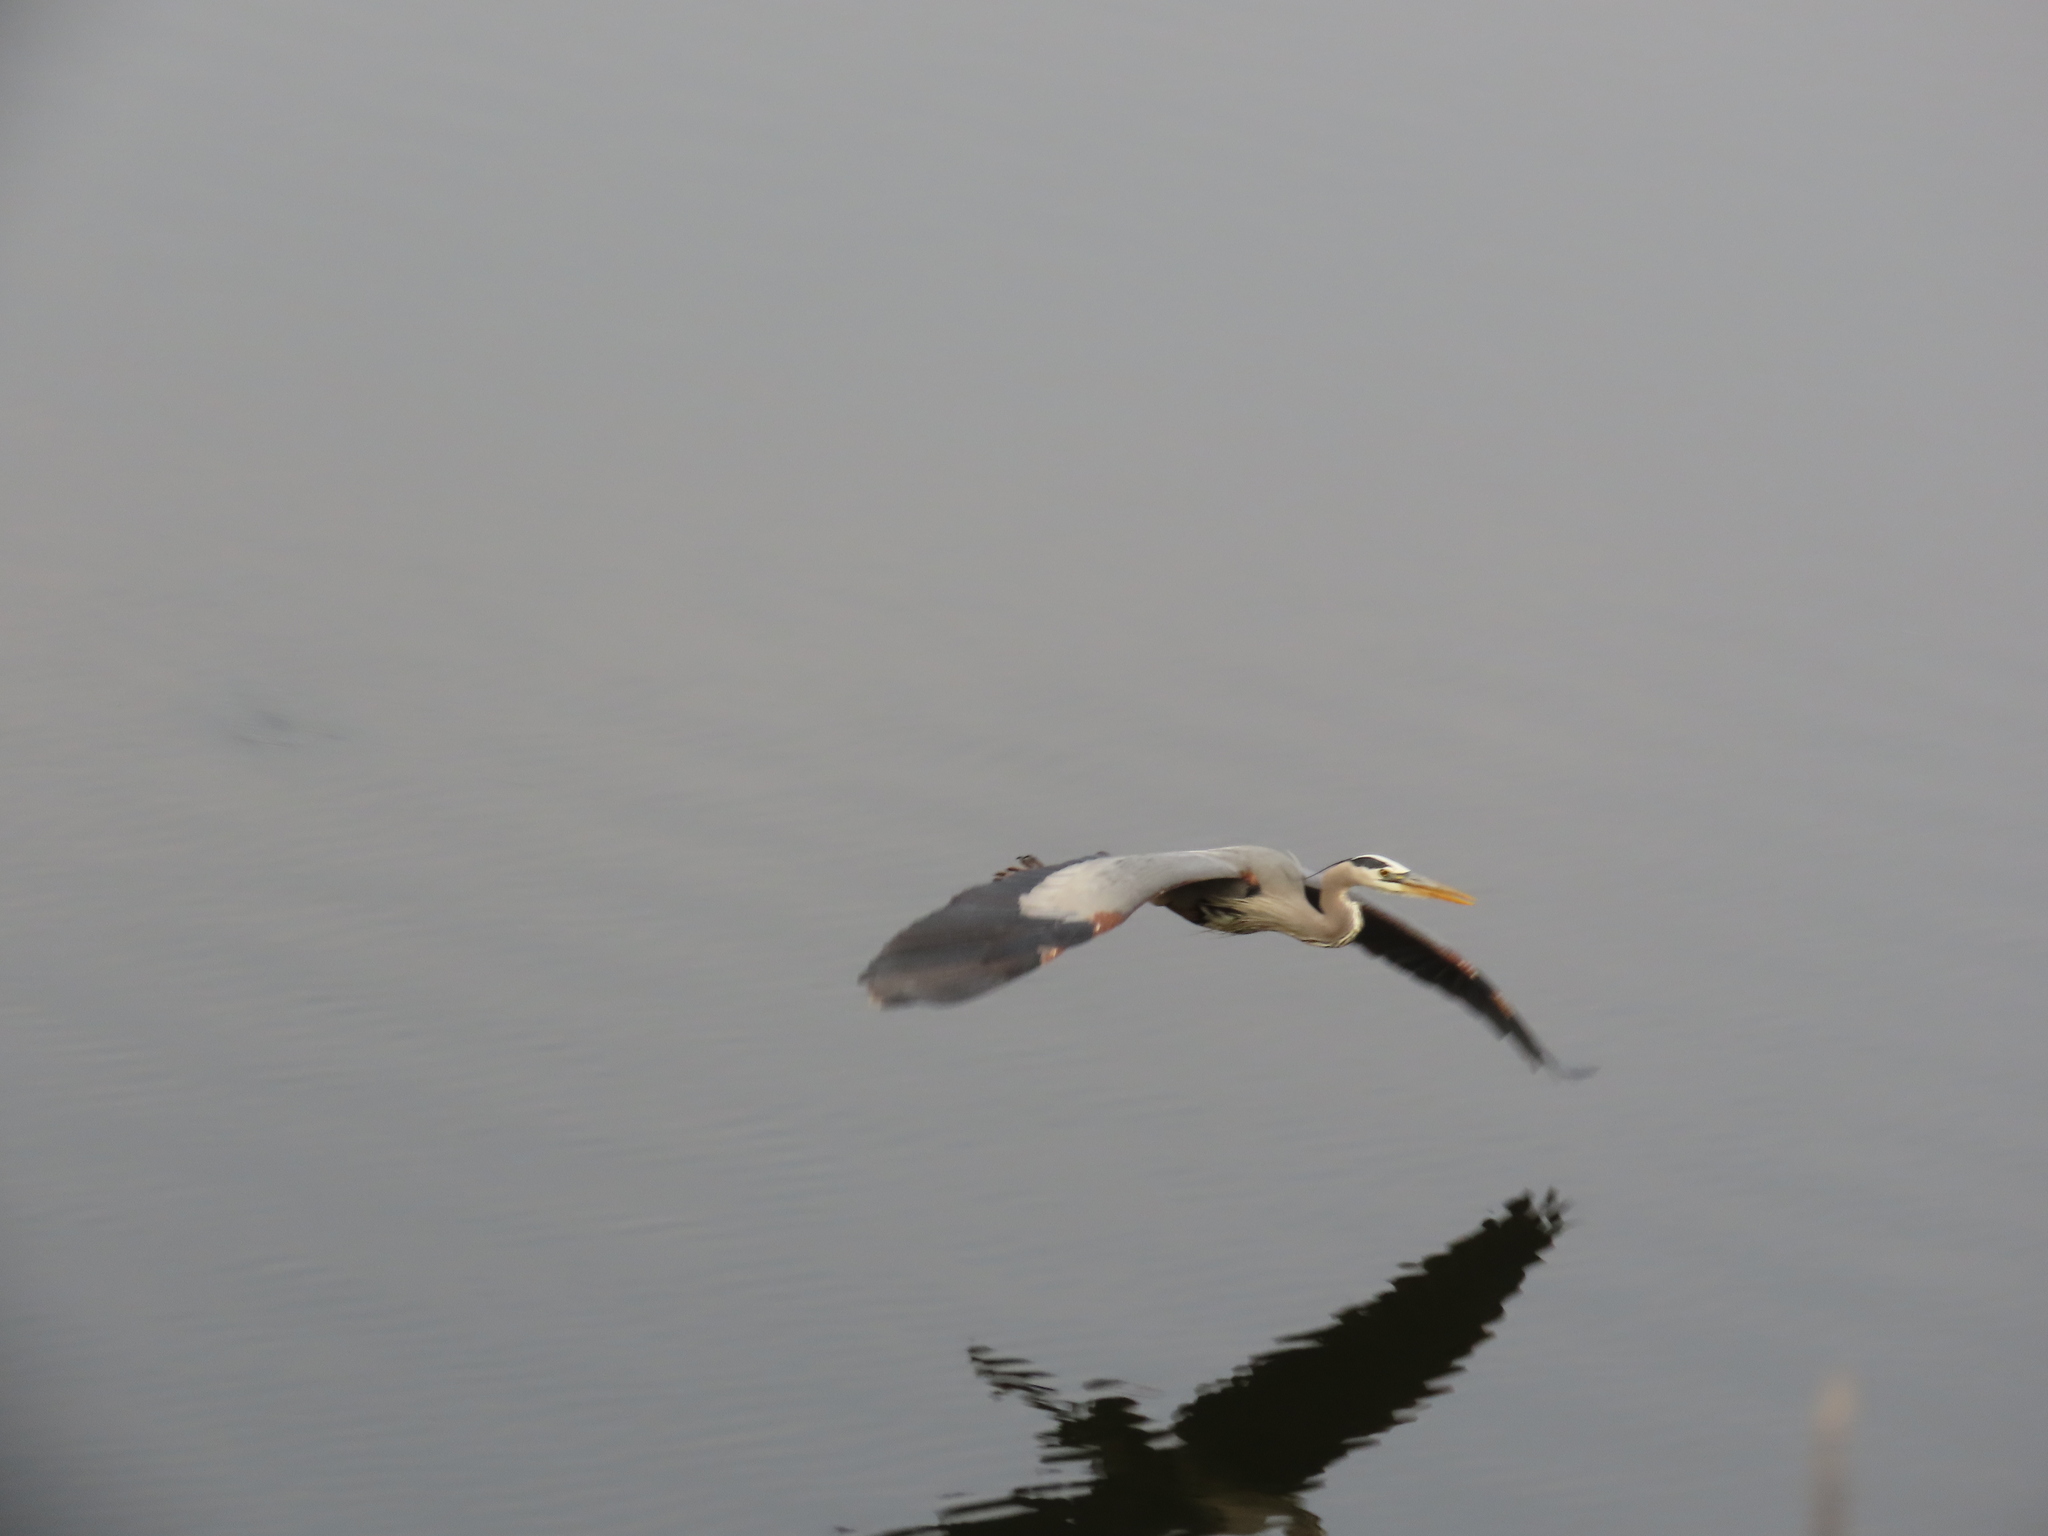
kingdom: Animalia
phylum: Chordata
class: Aves
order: Pelecaniformes
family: Ardeidae
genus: Ardea
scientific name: Ardea herodias
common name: Great blue heron
